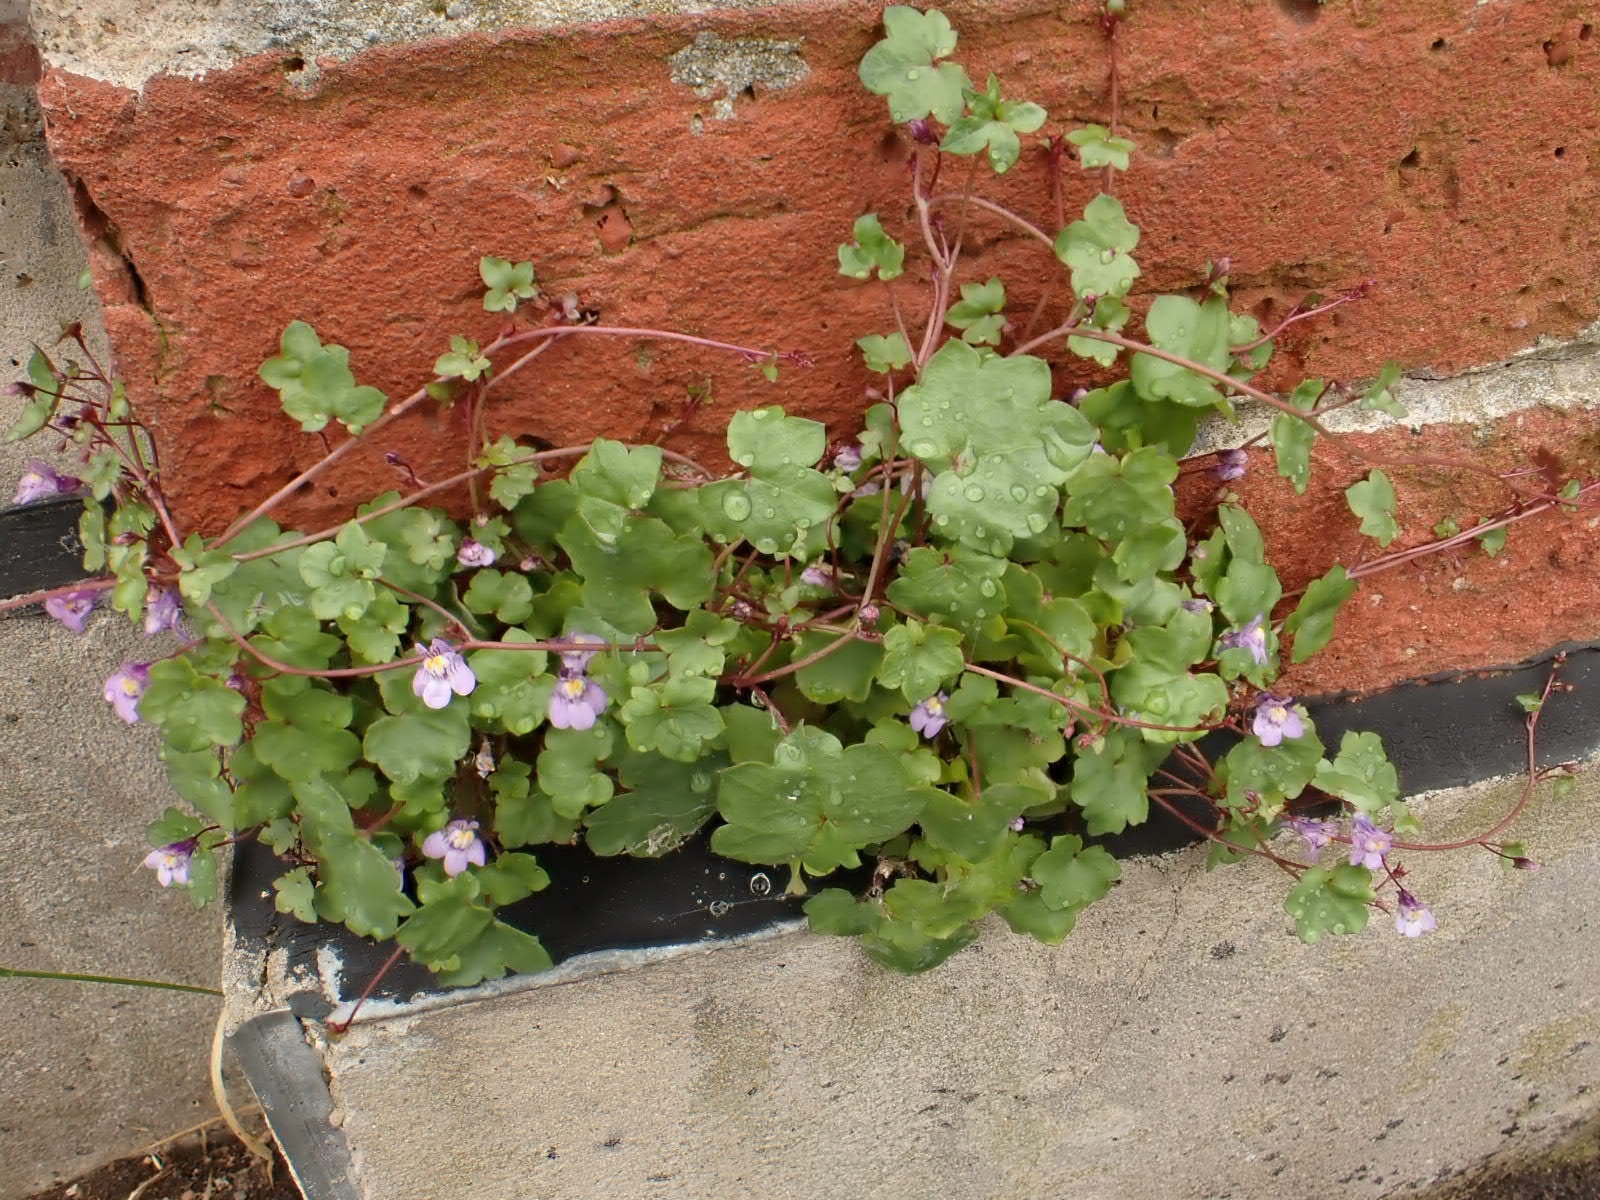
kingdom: Plantae
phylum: Tracheophyta
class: Magnoliopsida
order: Lamiales
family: Plantaginaceae
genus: Cymbalaria
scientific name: Cymbalaria muralis
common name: Ivy-leaved toadflax
